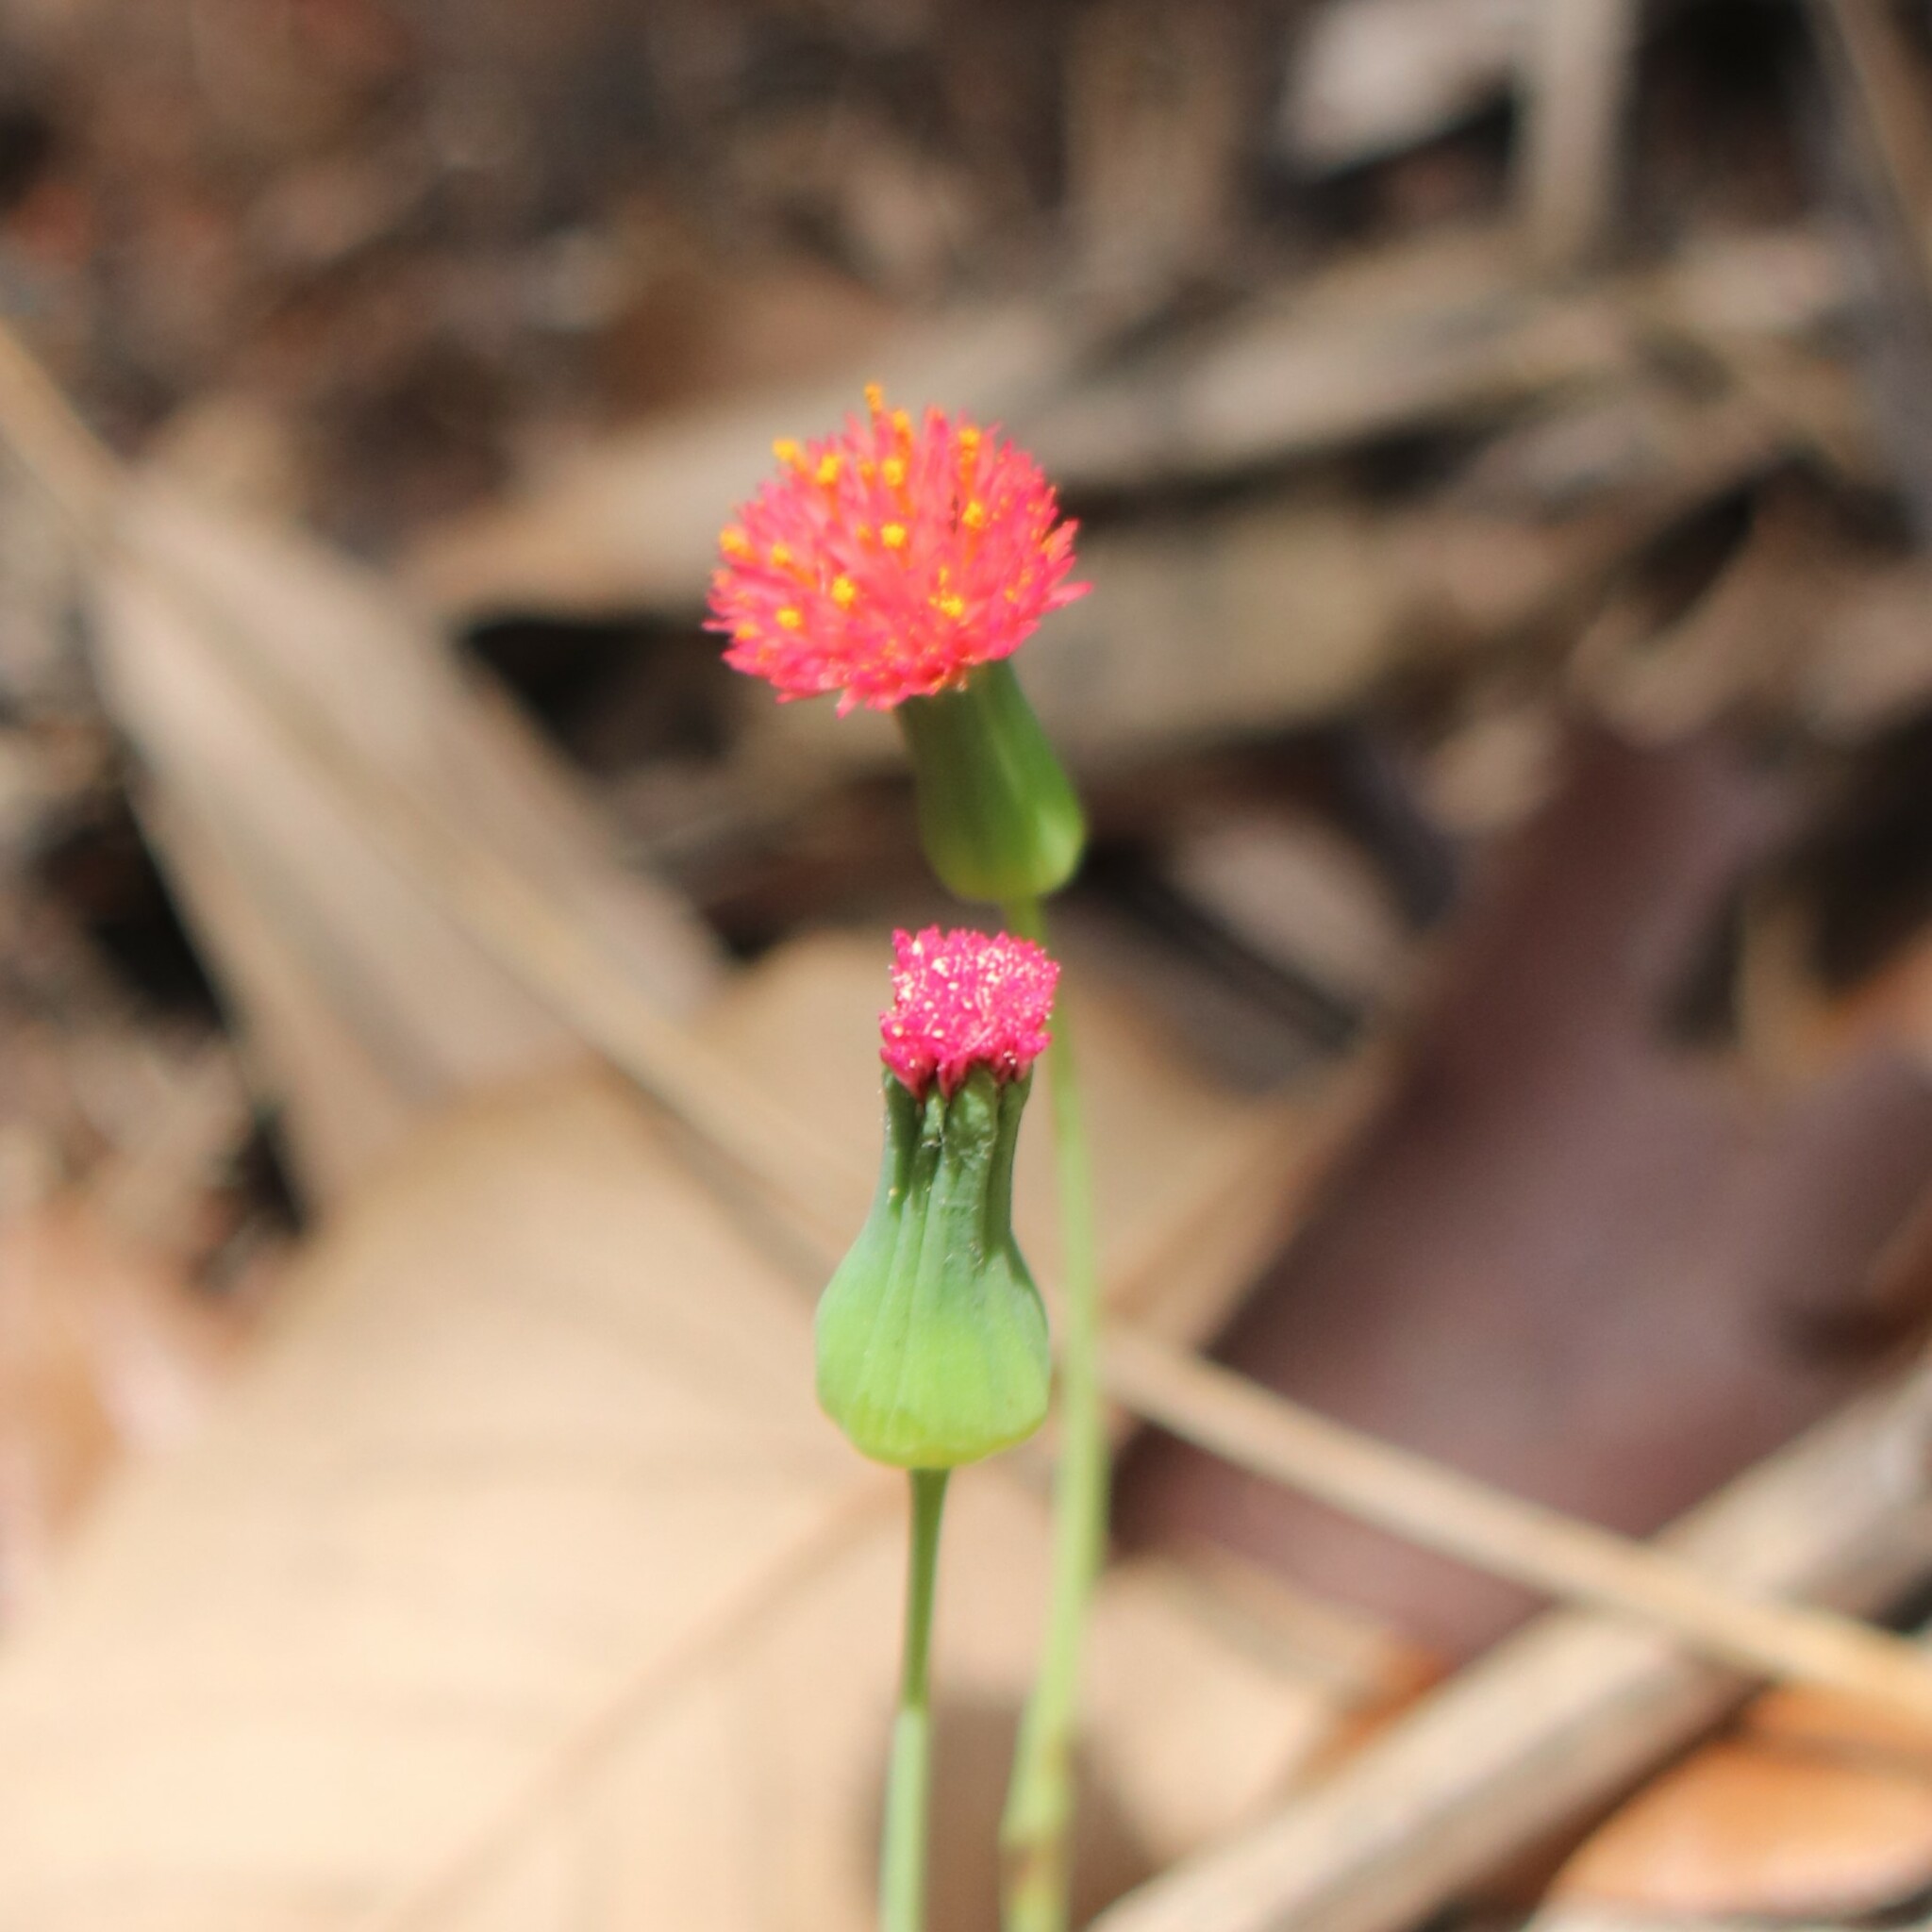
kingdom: Plantae
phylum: Tracheophyta
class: Magnoliopsida
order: Asterales
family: Asteraceae
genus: Emilia
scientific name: Emilia fosbergii
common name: Florida tasselflower
